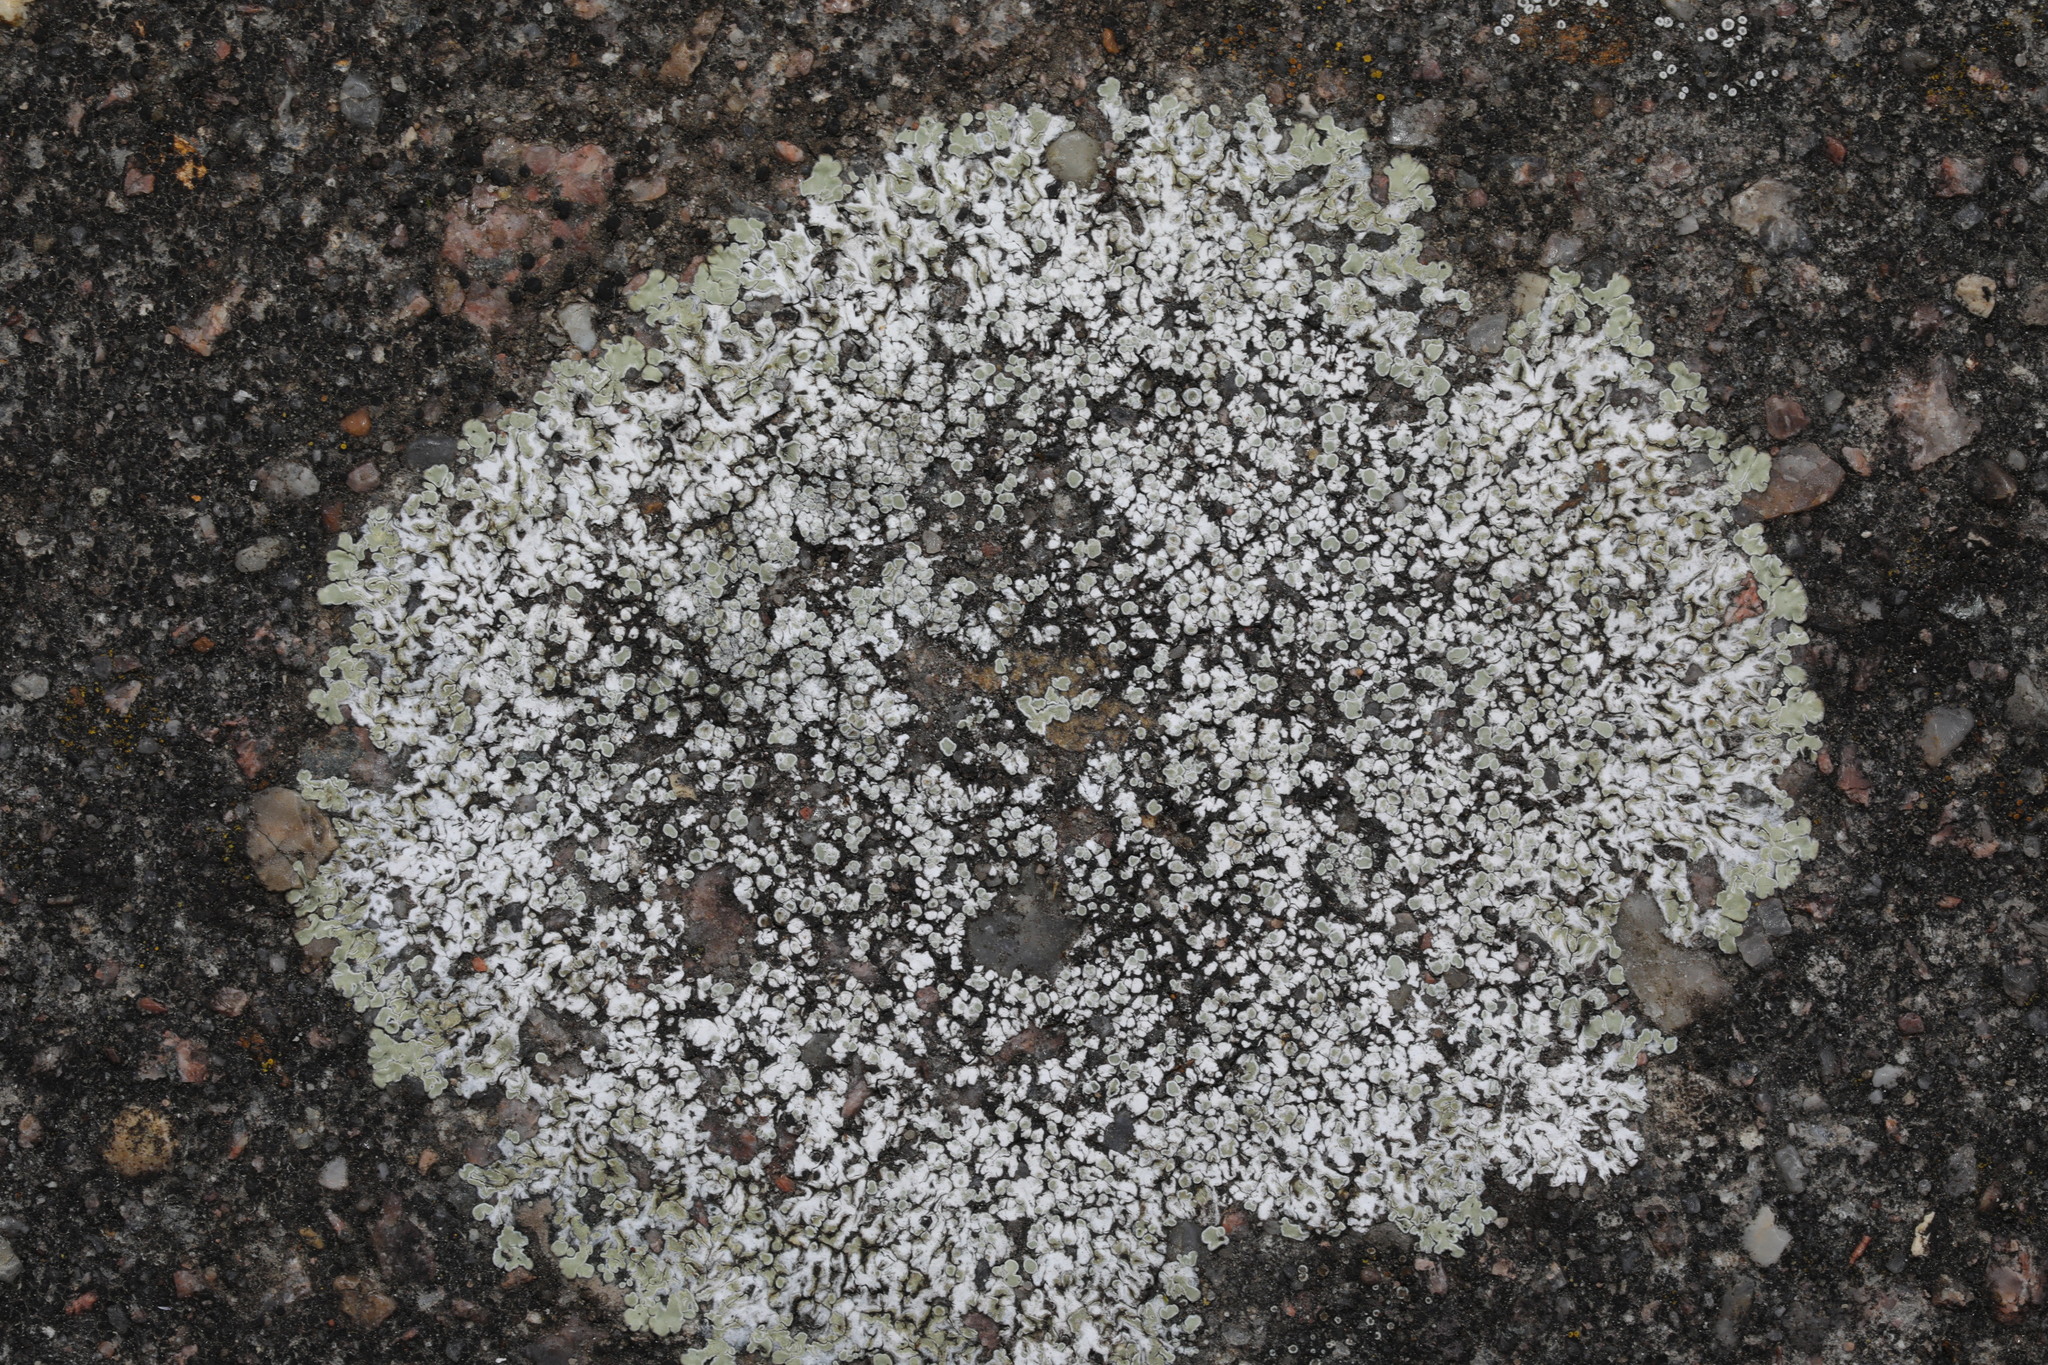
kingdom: Fungi
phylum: Ascomycota
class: Lecanoromycetes
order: Lecanorales
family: Lecanoraceae
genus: Protoparmeliopsis
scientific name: Protoparmeliopsis muralis
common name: Stonewall rim lichen
